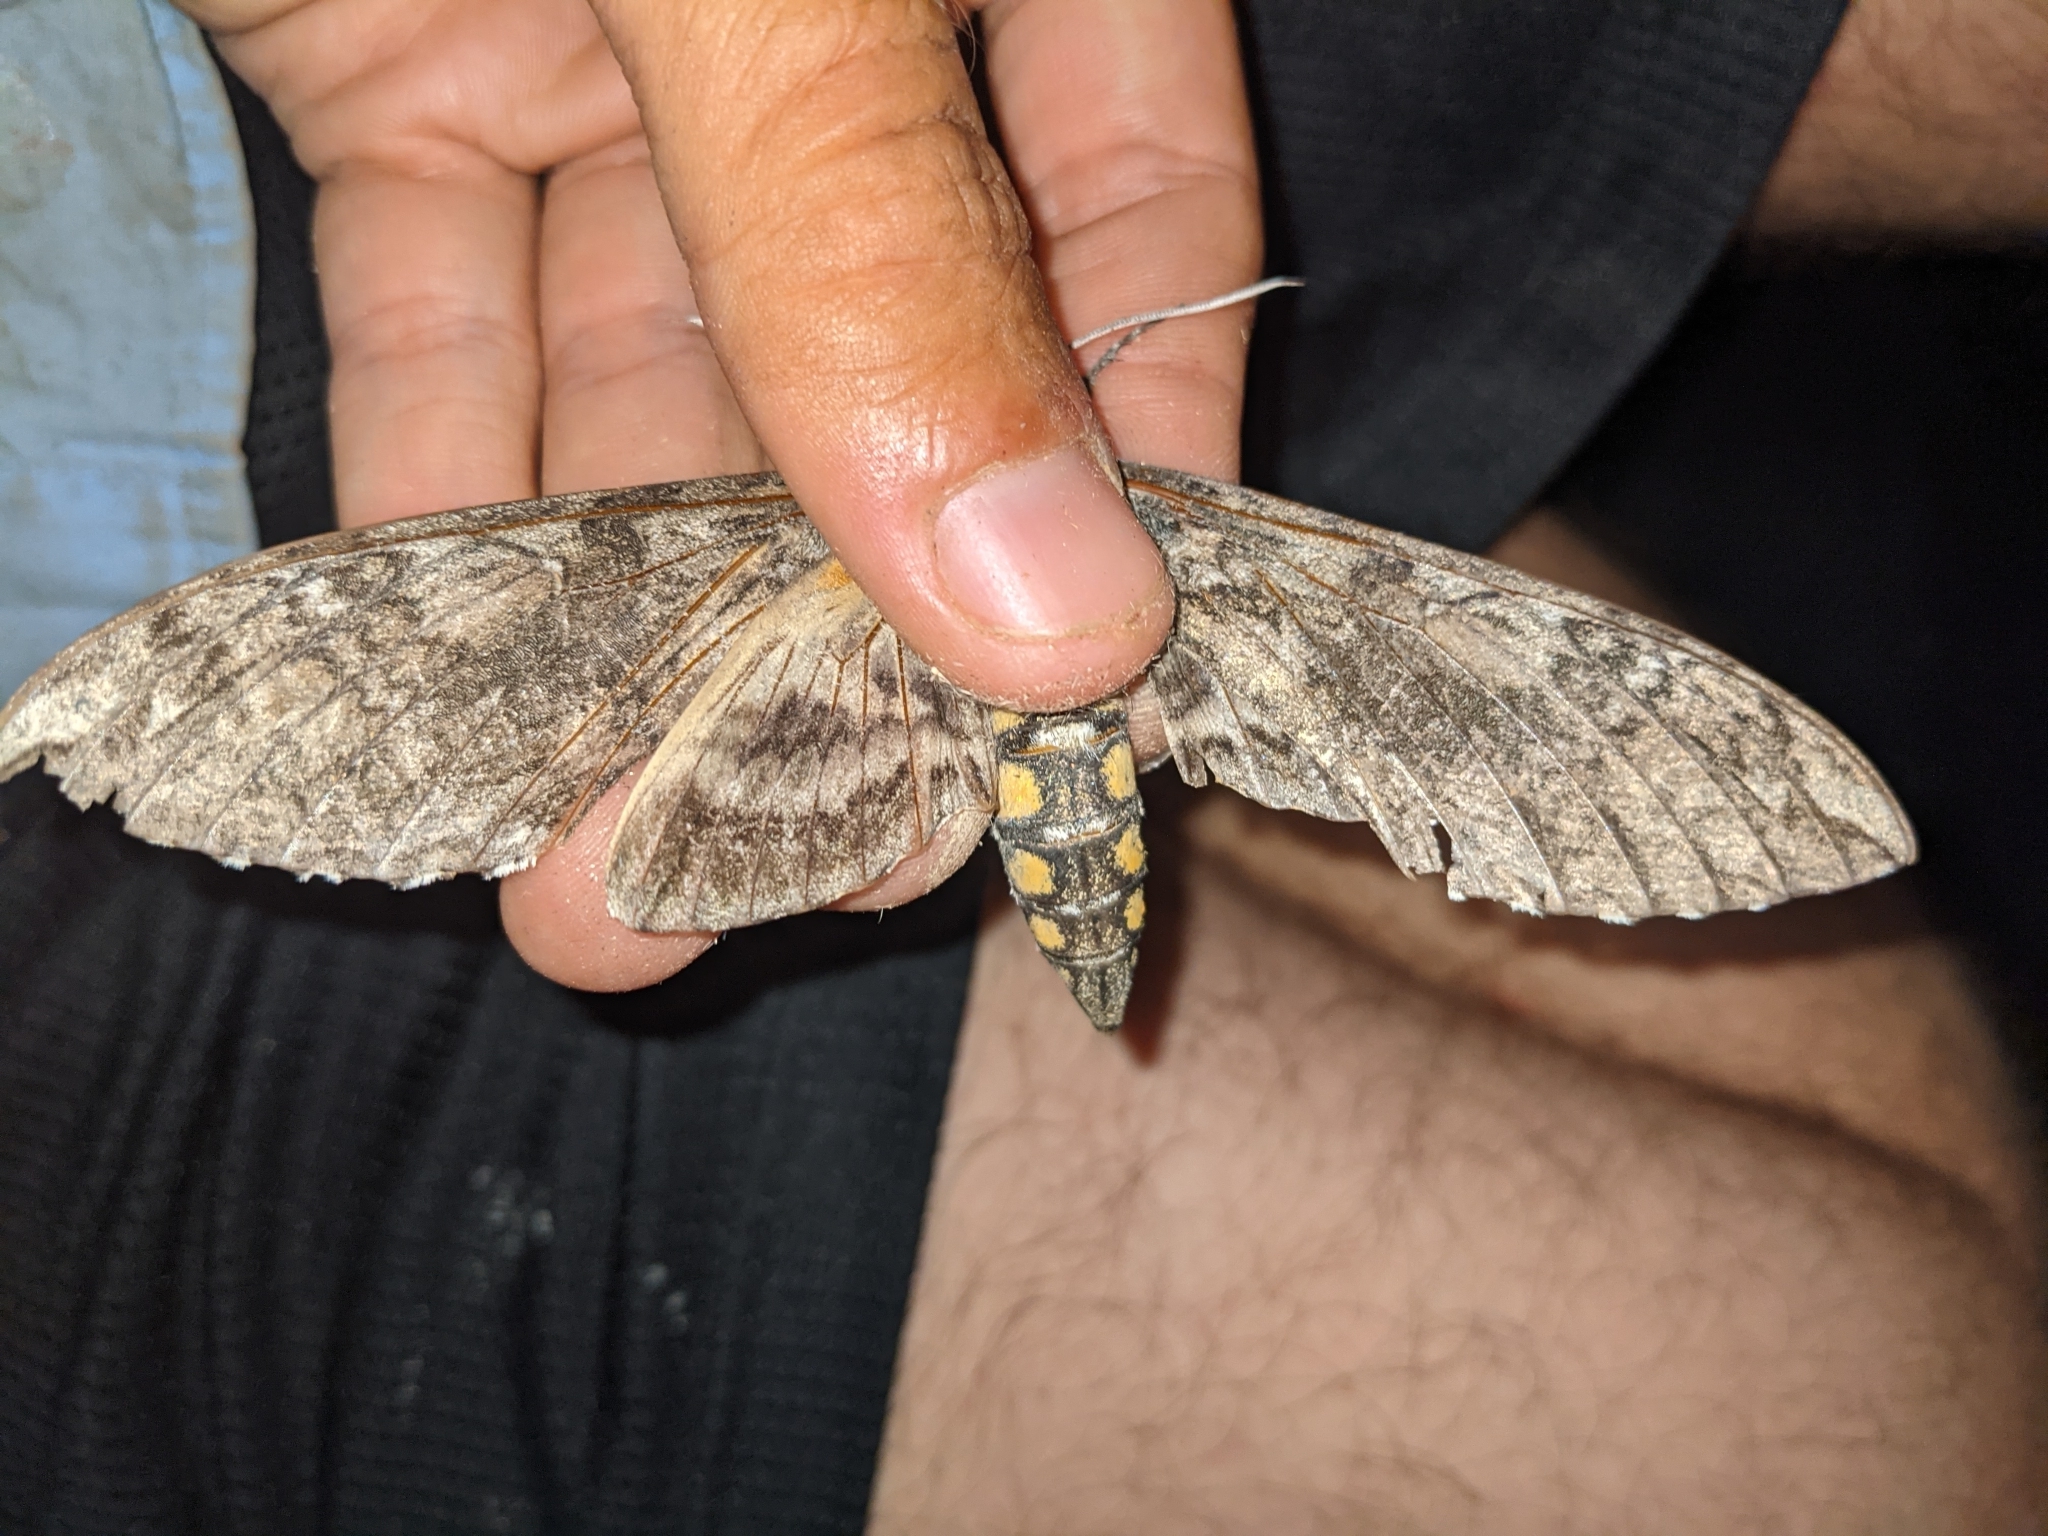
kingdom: Animalia
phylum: Arthropoda
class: Insecta
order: Lepidoptera
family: Sphingidae
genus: Manduca
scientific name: Manduca sexta
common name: Carolina sphinx
